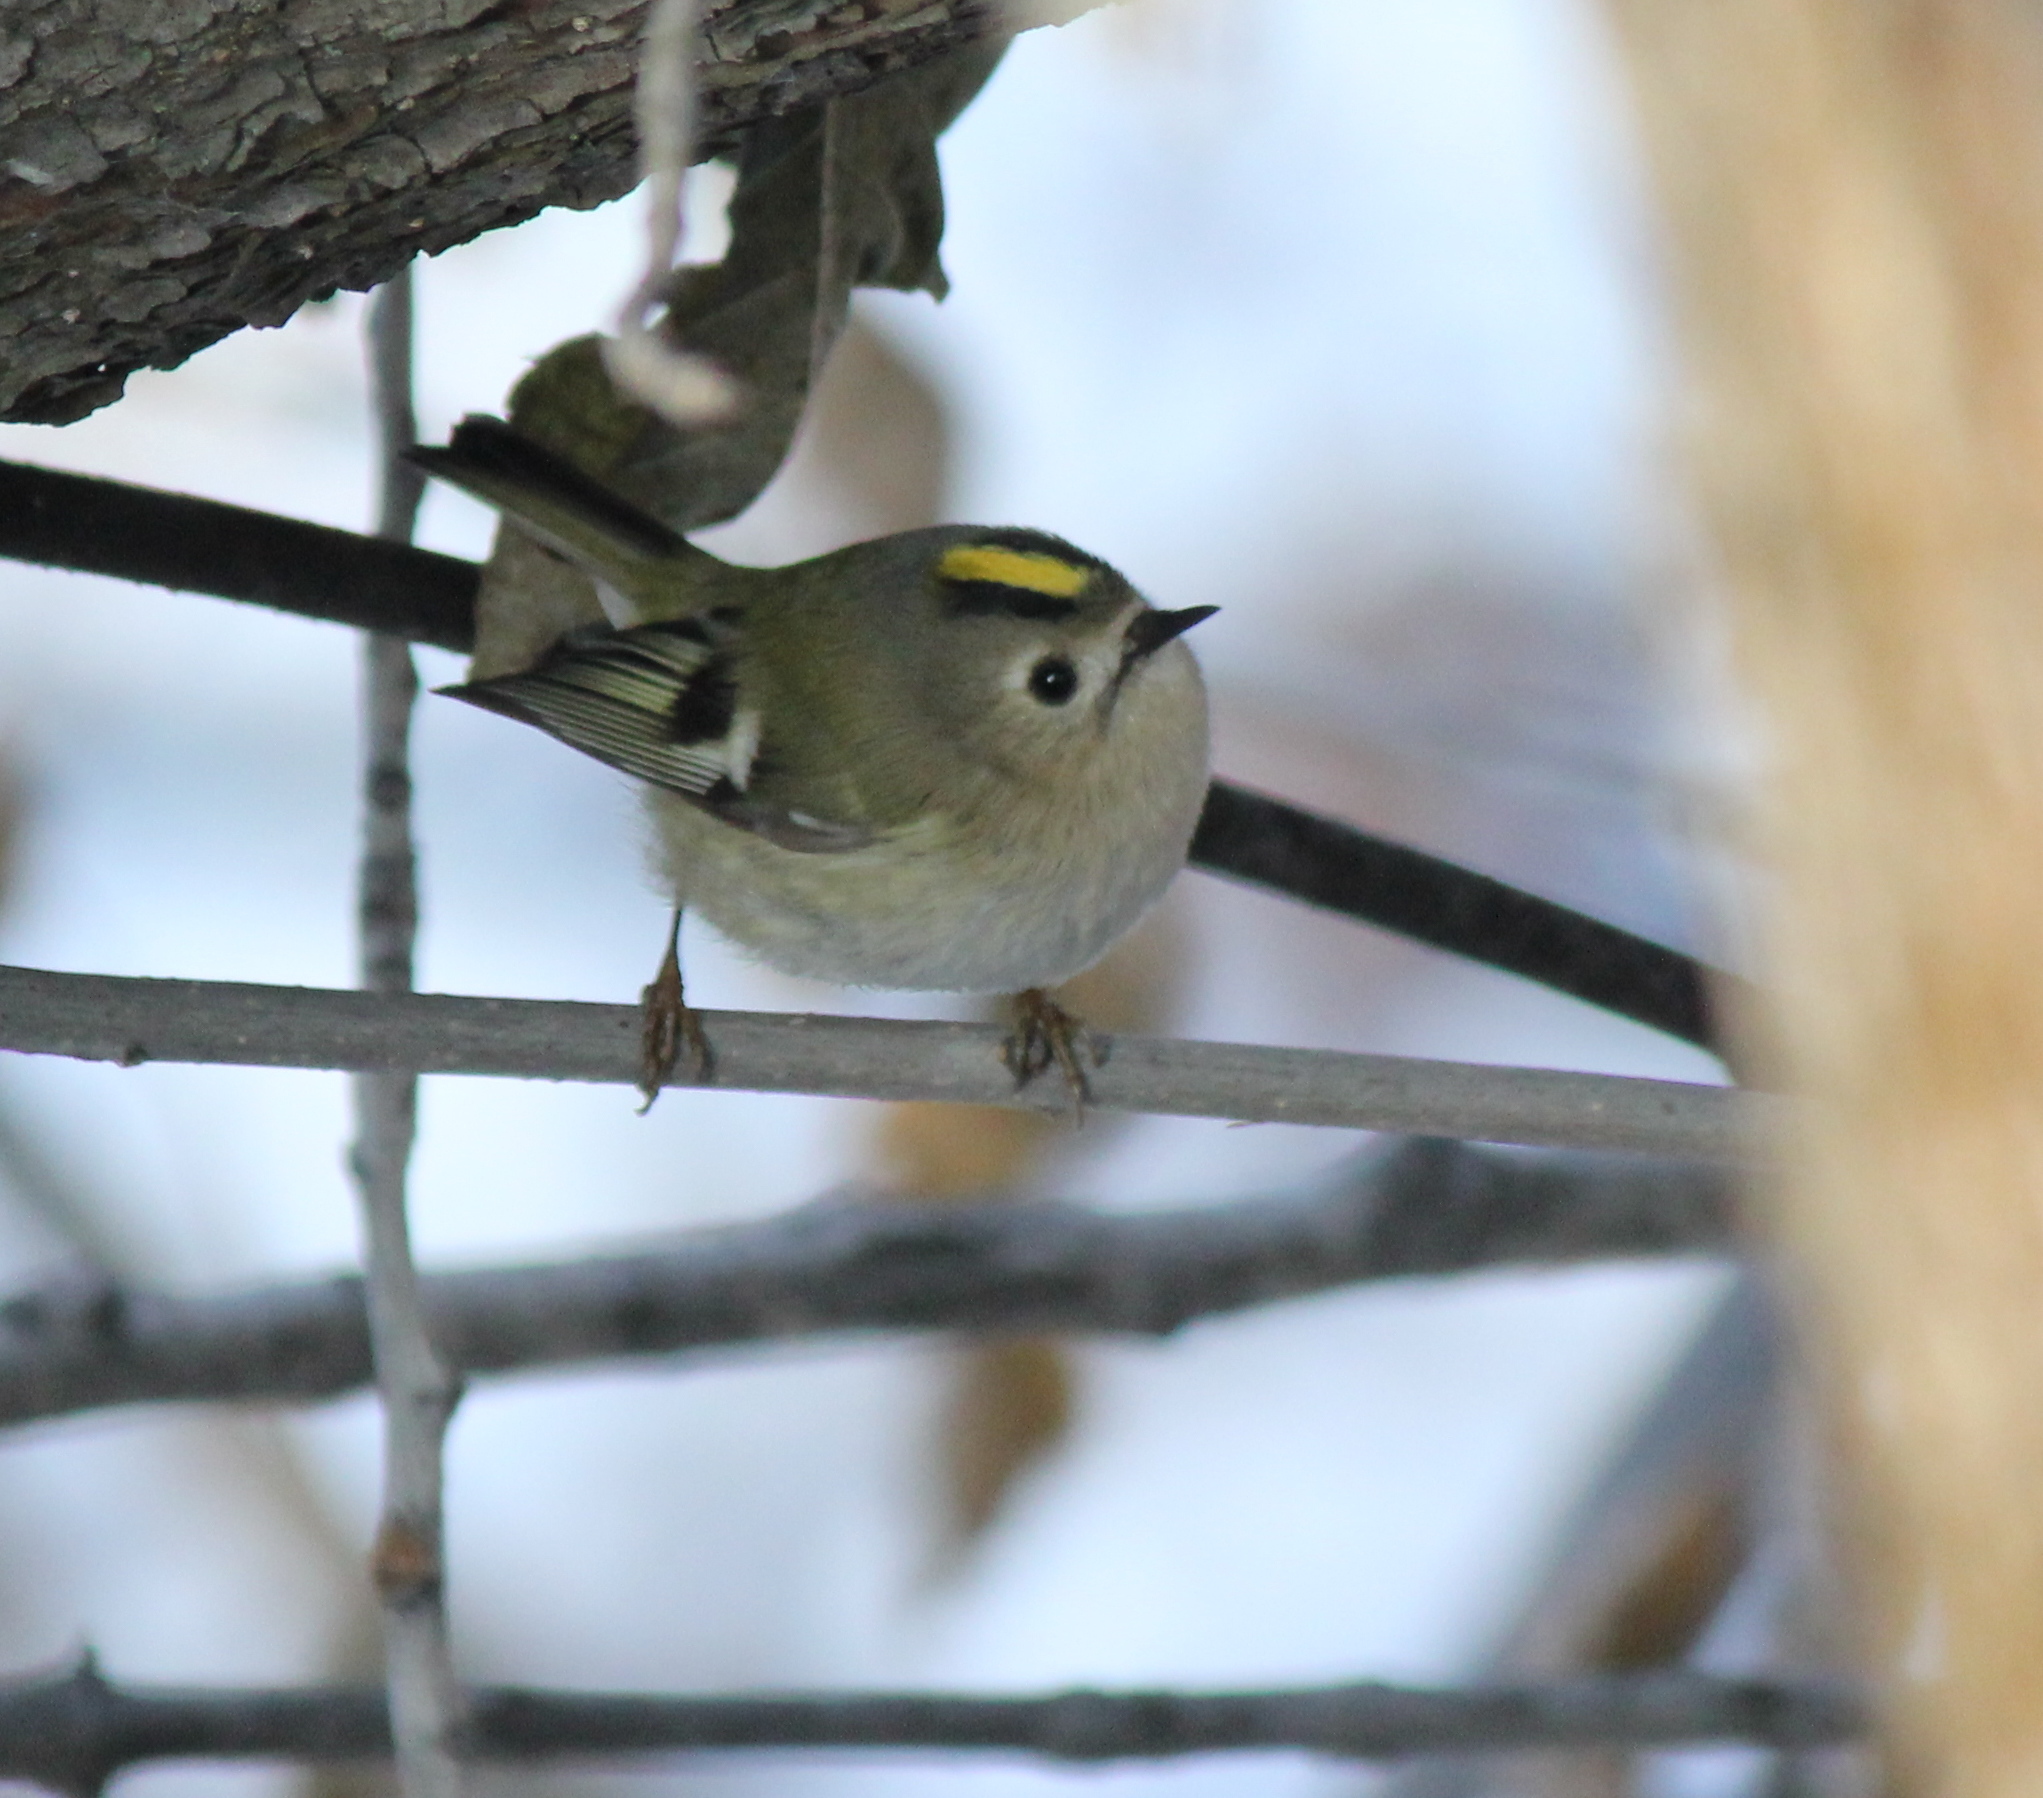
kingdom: Animalia
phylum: Chordata
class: Aves
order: Passeriformes
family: Regulidae
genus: Regulus
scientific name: Regulus regulus
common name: Goldcrest
